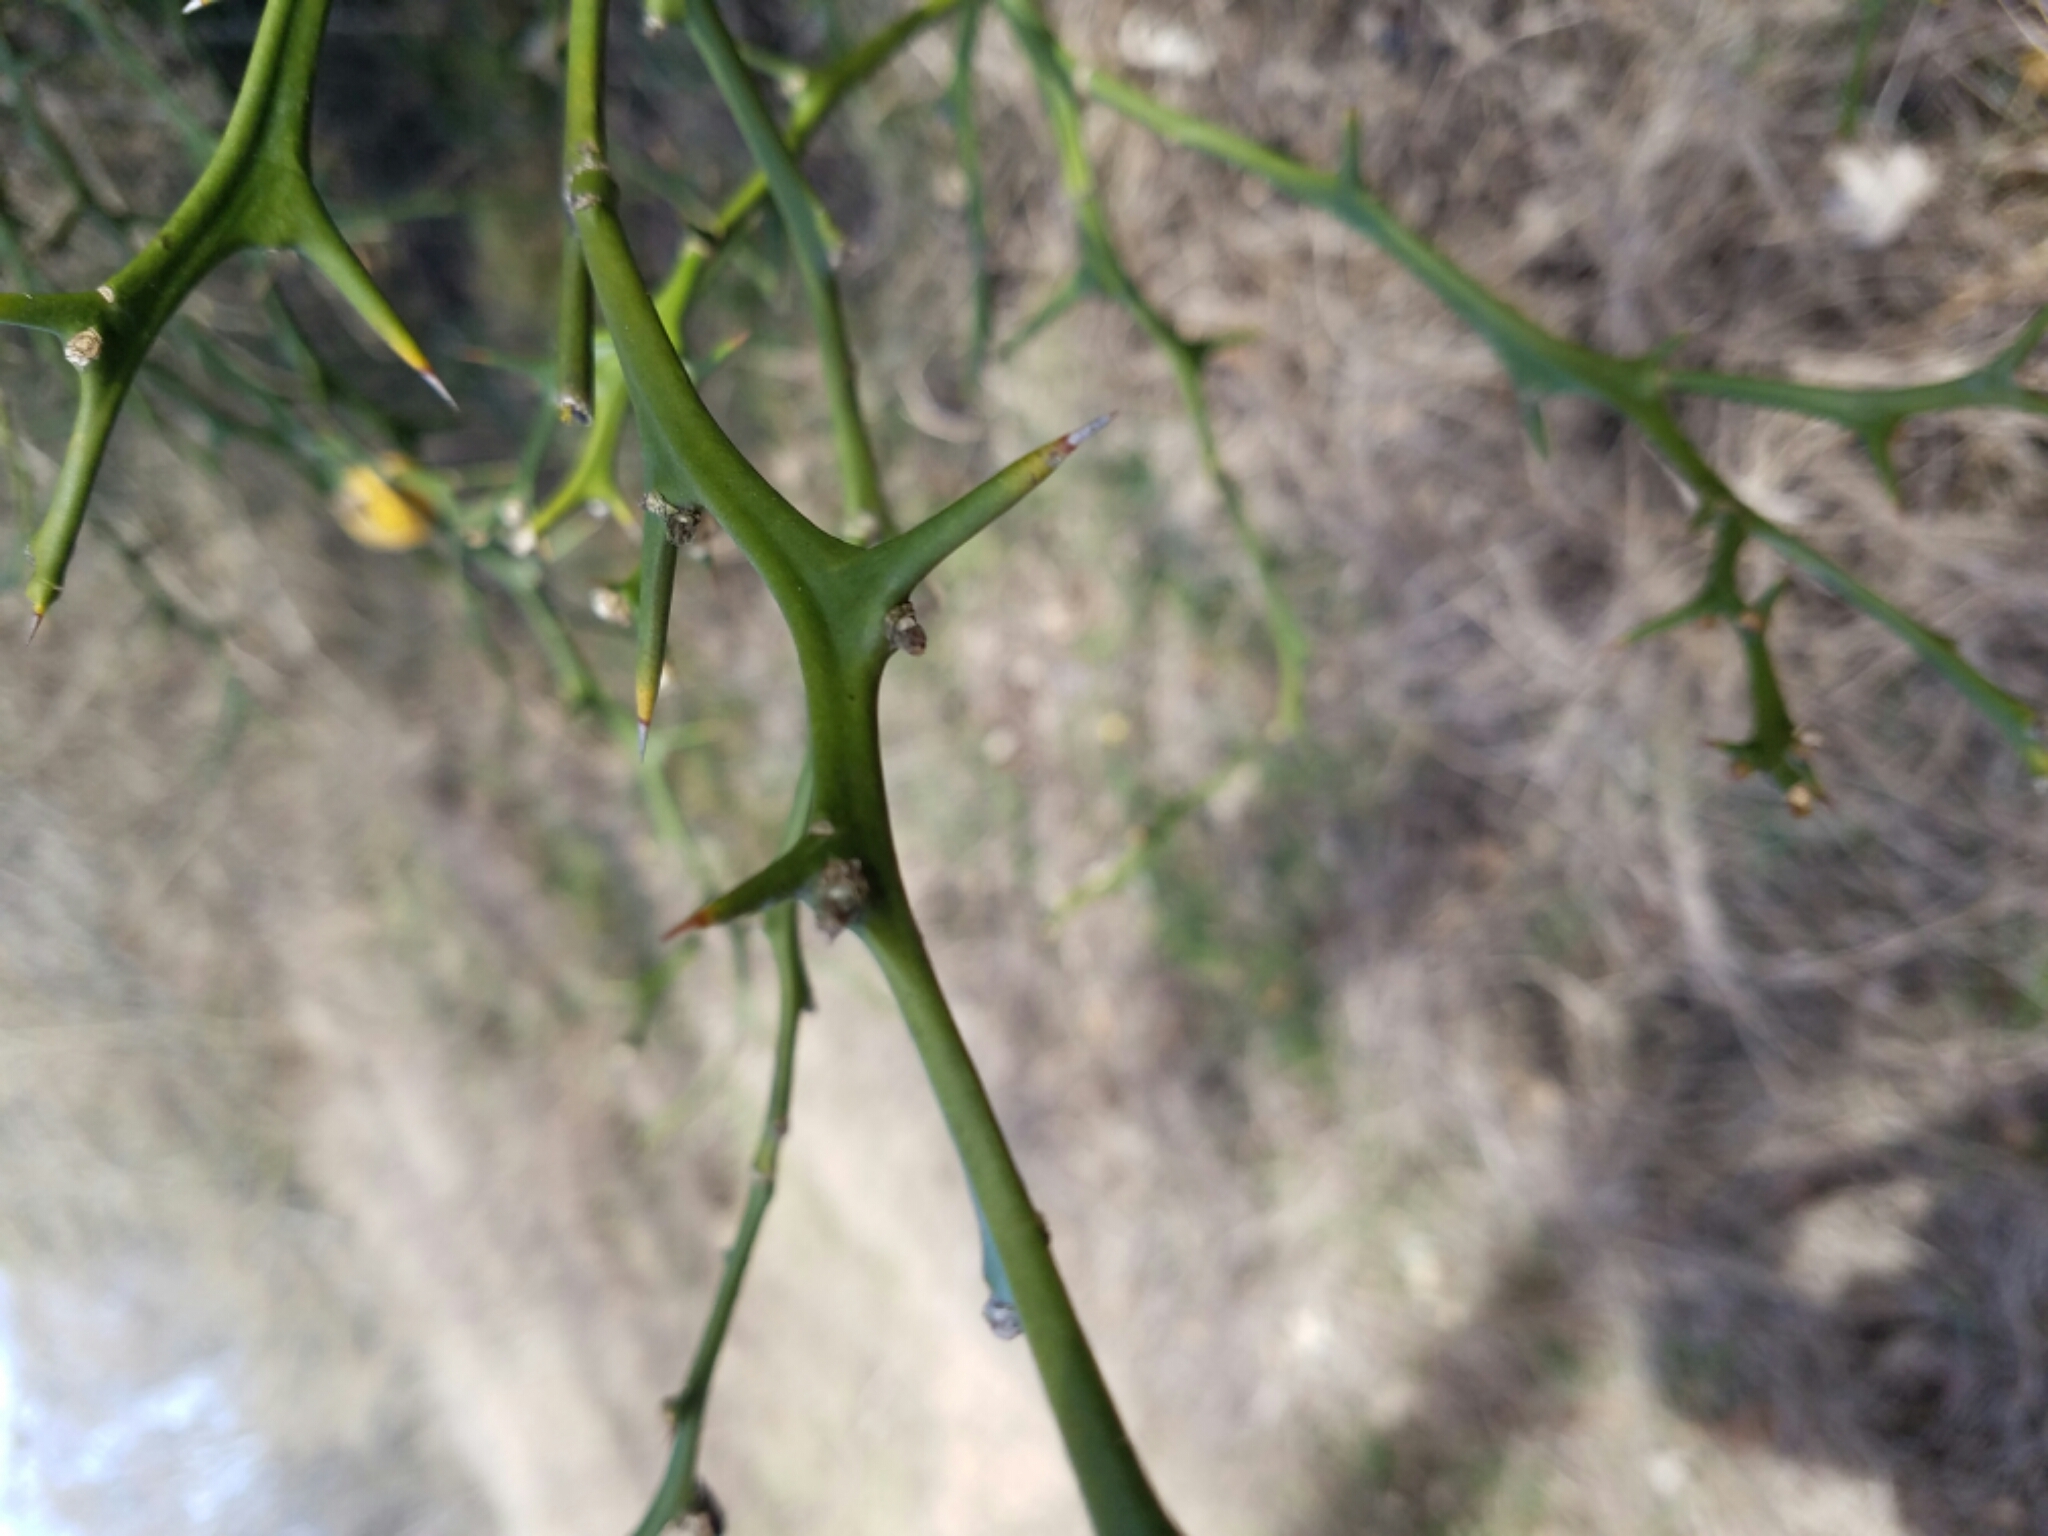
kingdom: Plantae
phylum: Tracheophyta
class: Magnoliopsida
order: Sapindales
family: Rutaceae
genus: Citrus
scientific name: Citrus trifoliata
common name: Japanese bitter-orange
